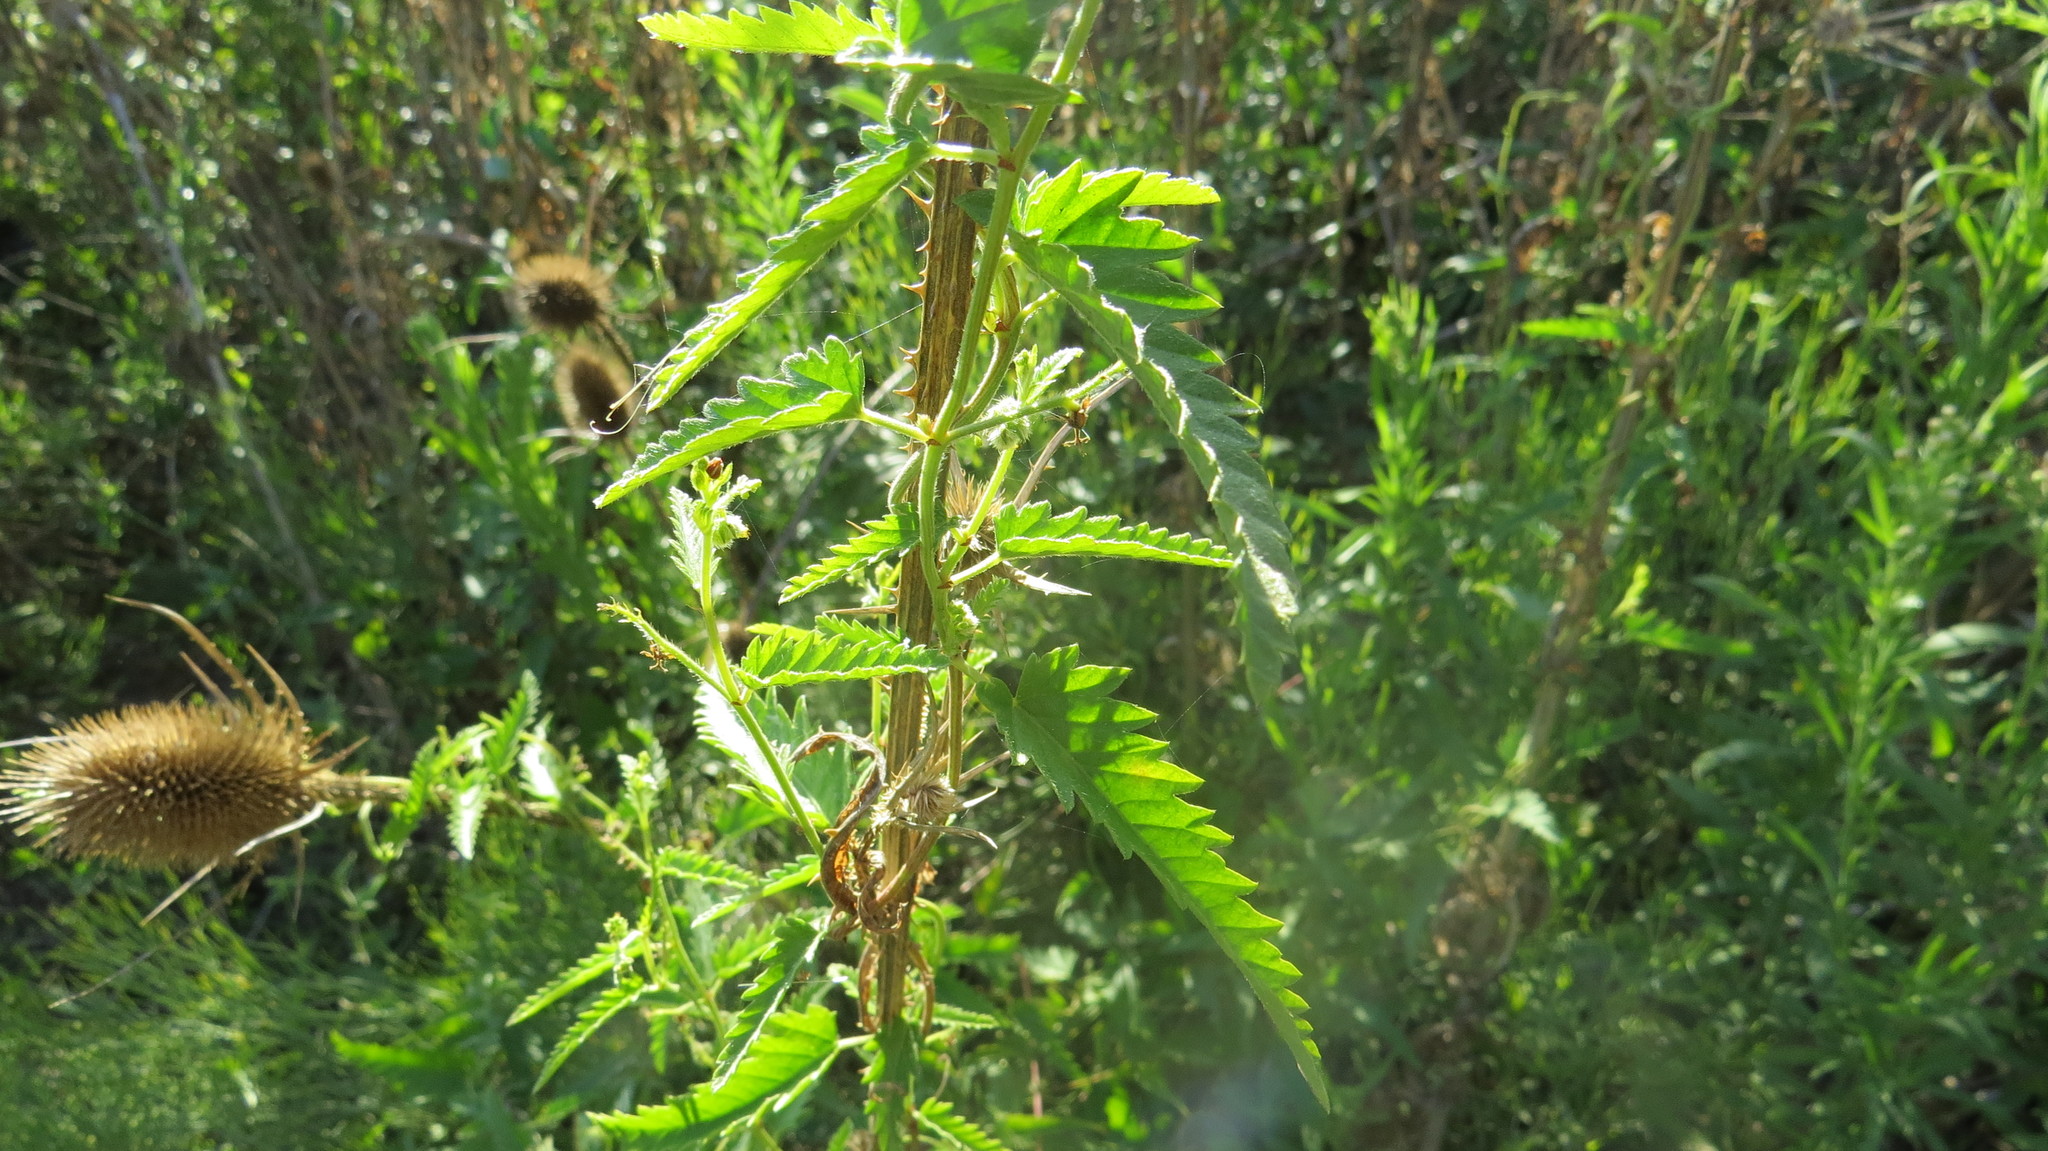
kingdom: Plantae
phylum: Tracheophyta
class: Magnoliopsida
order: Malpighiales
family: Euphorbiaceae
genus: Tragia
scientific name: Tragia volubilis
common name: Twining cow-itch
